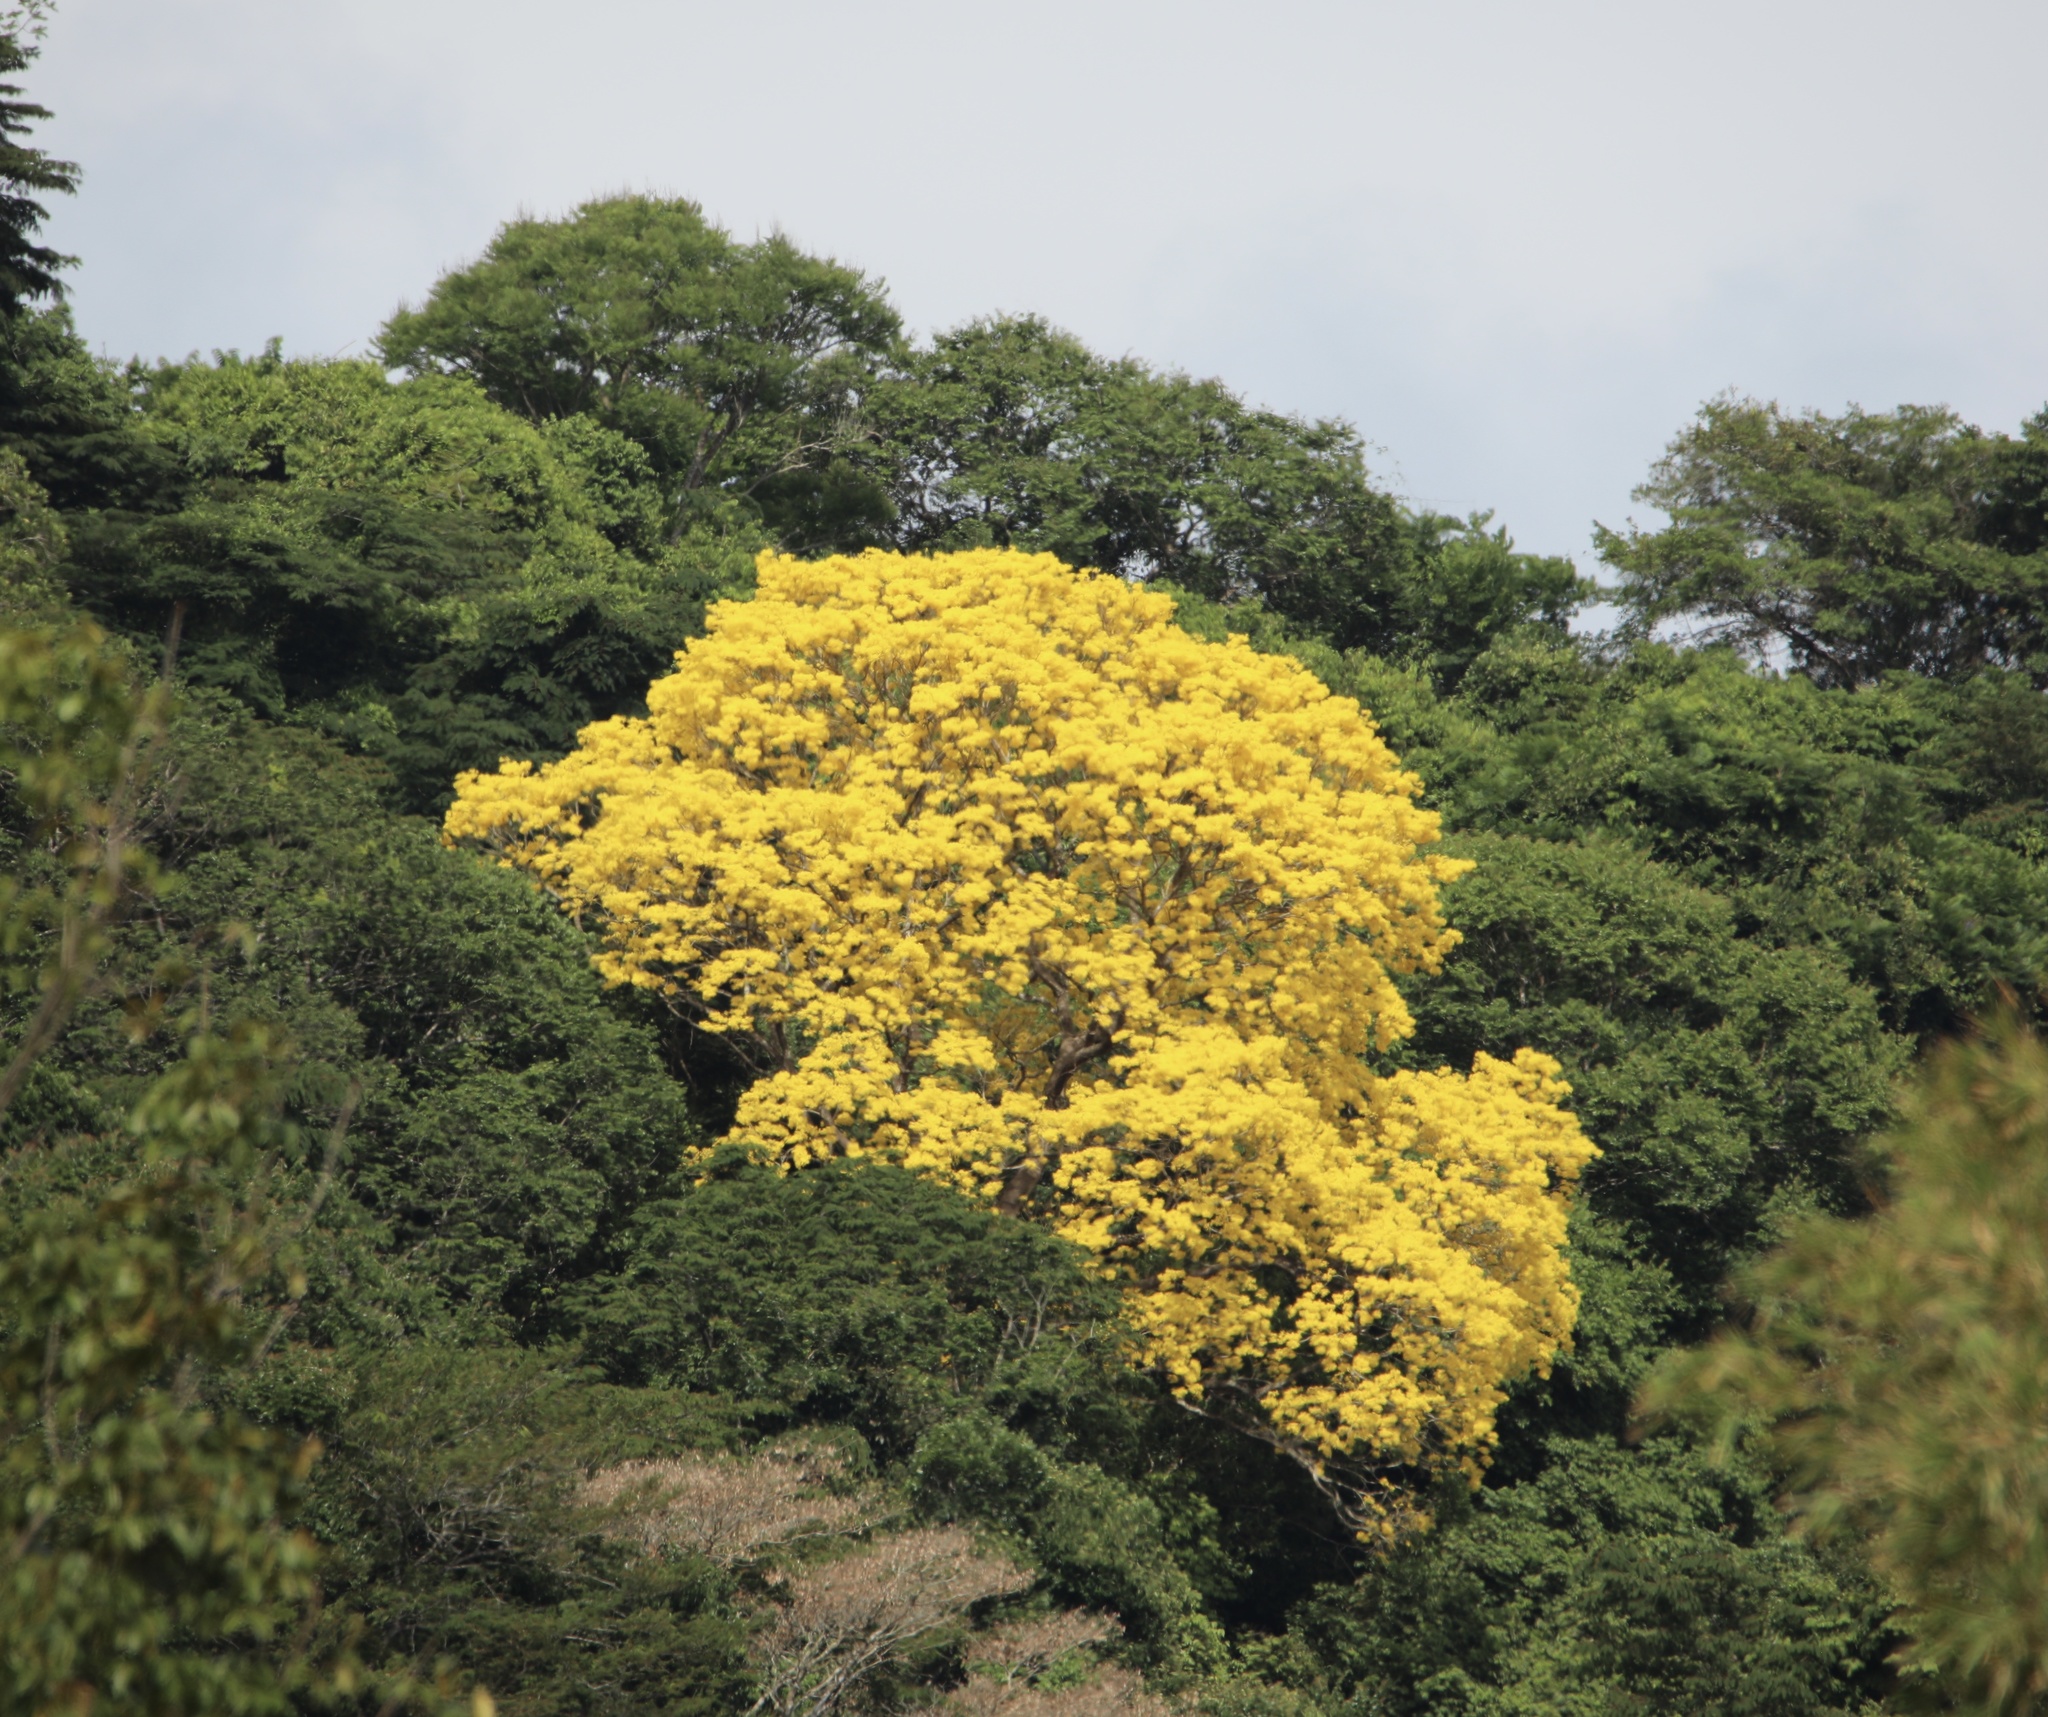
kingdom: Plantae
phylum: Tracheophyta
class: Magnoliopsida
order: Lamiales
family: Bignoniaceae
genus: Handroanthus
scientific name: Handroanthus guayacan
